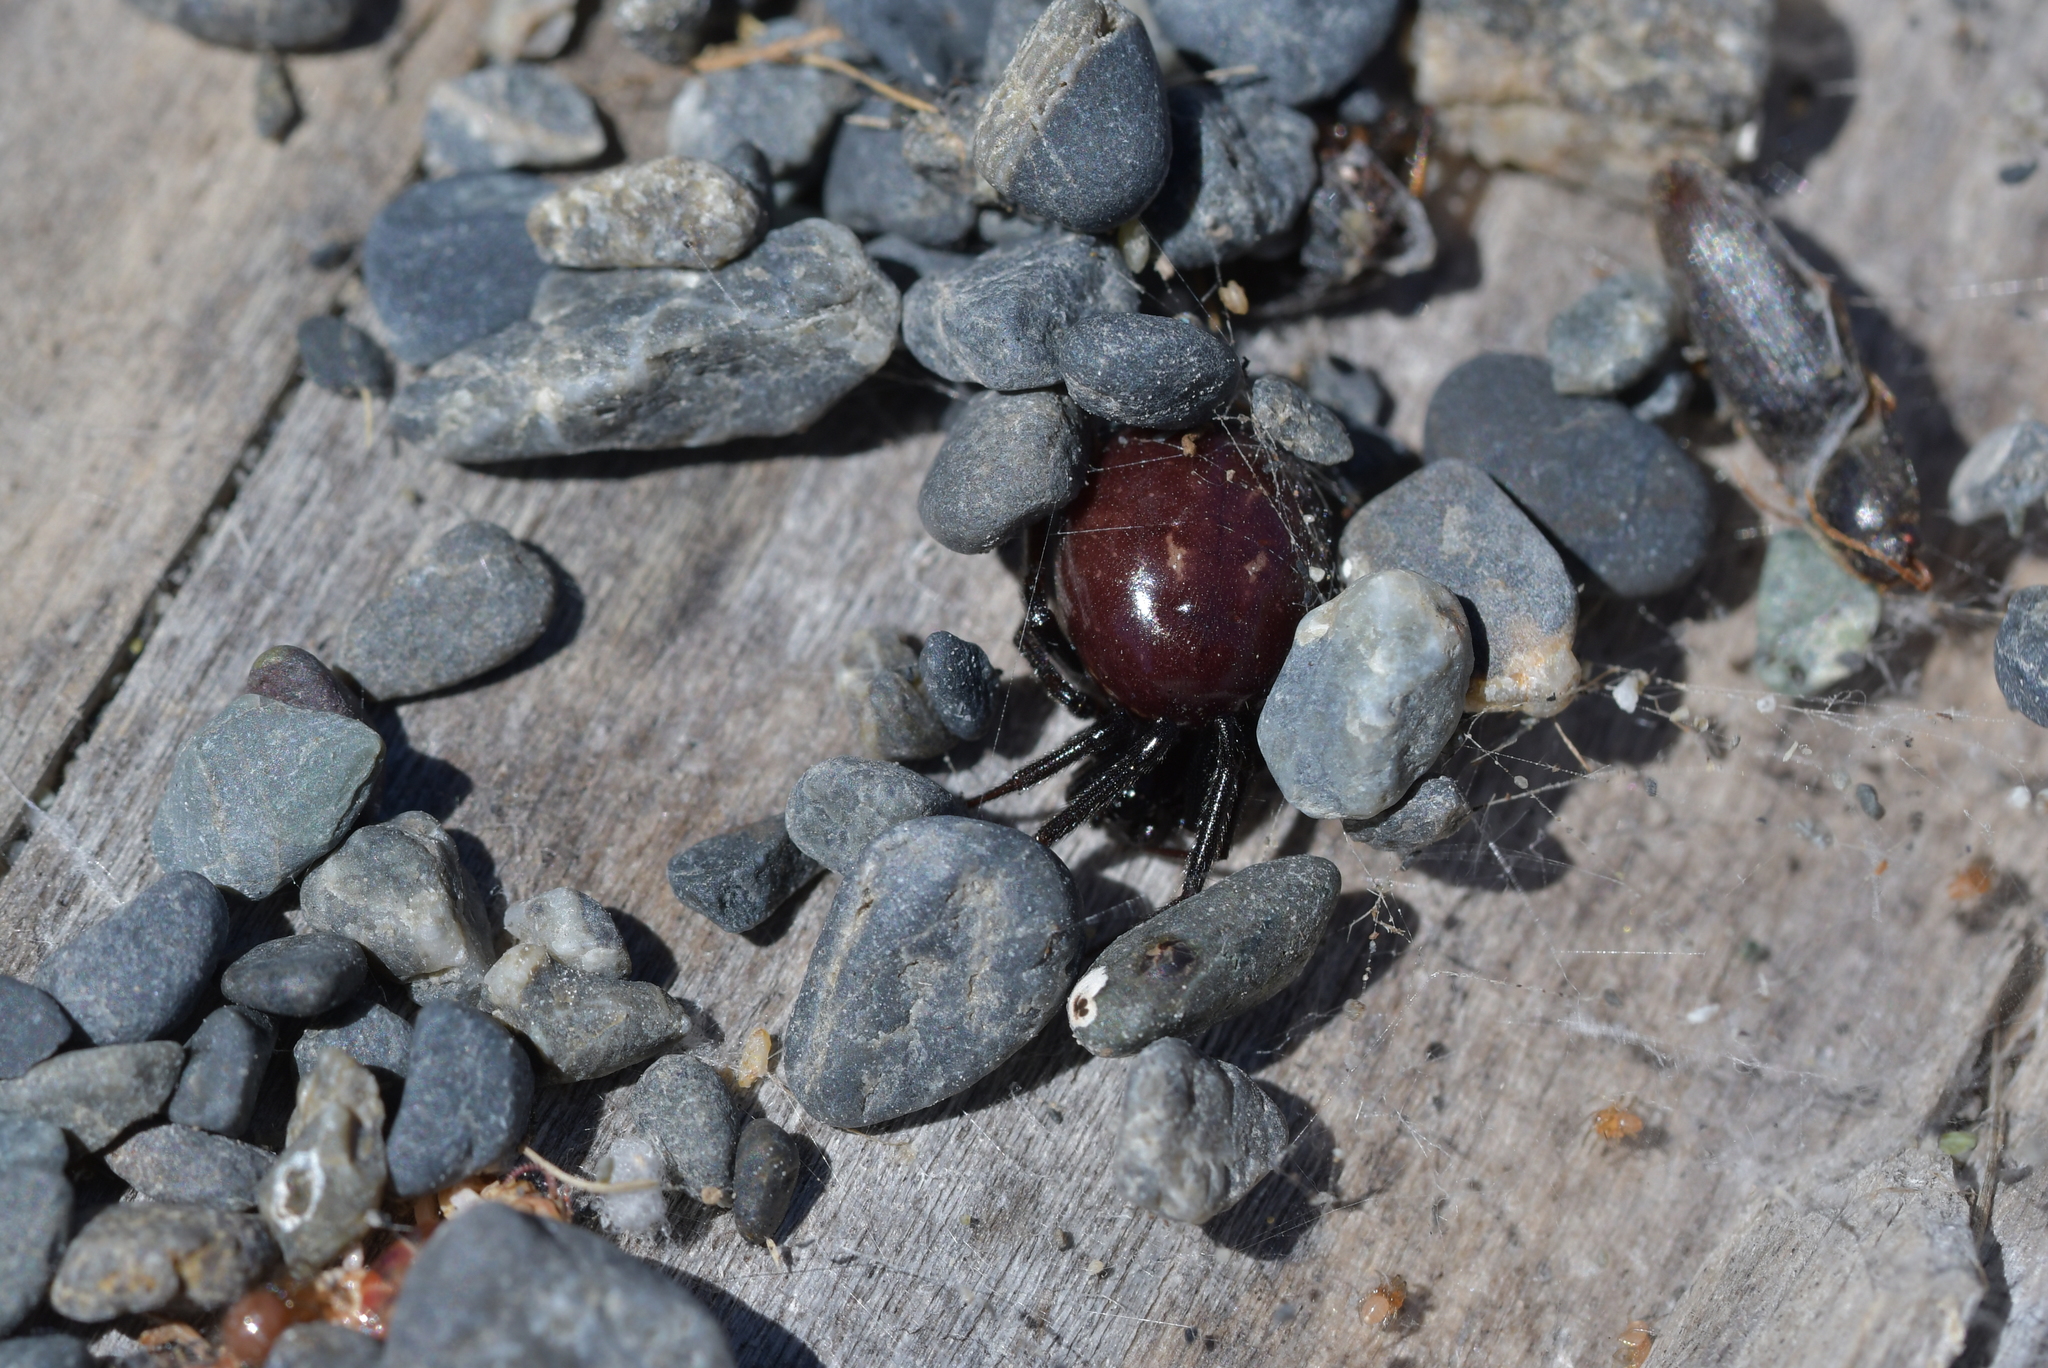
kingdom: Animalia
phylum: Arthropoda
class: Arachnida
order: Araneae
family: Theridiidae
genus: Steatoda
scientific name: Steatoda capensis
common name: Cobweb weaver
